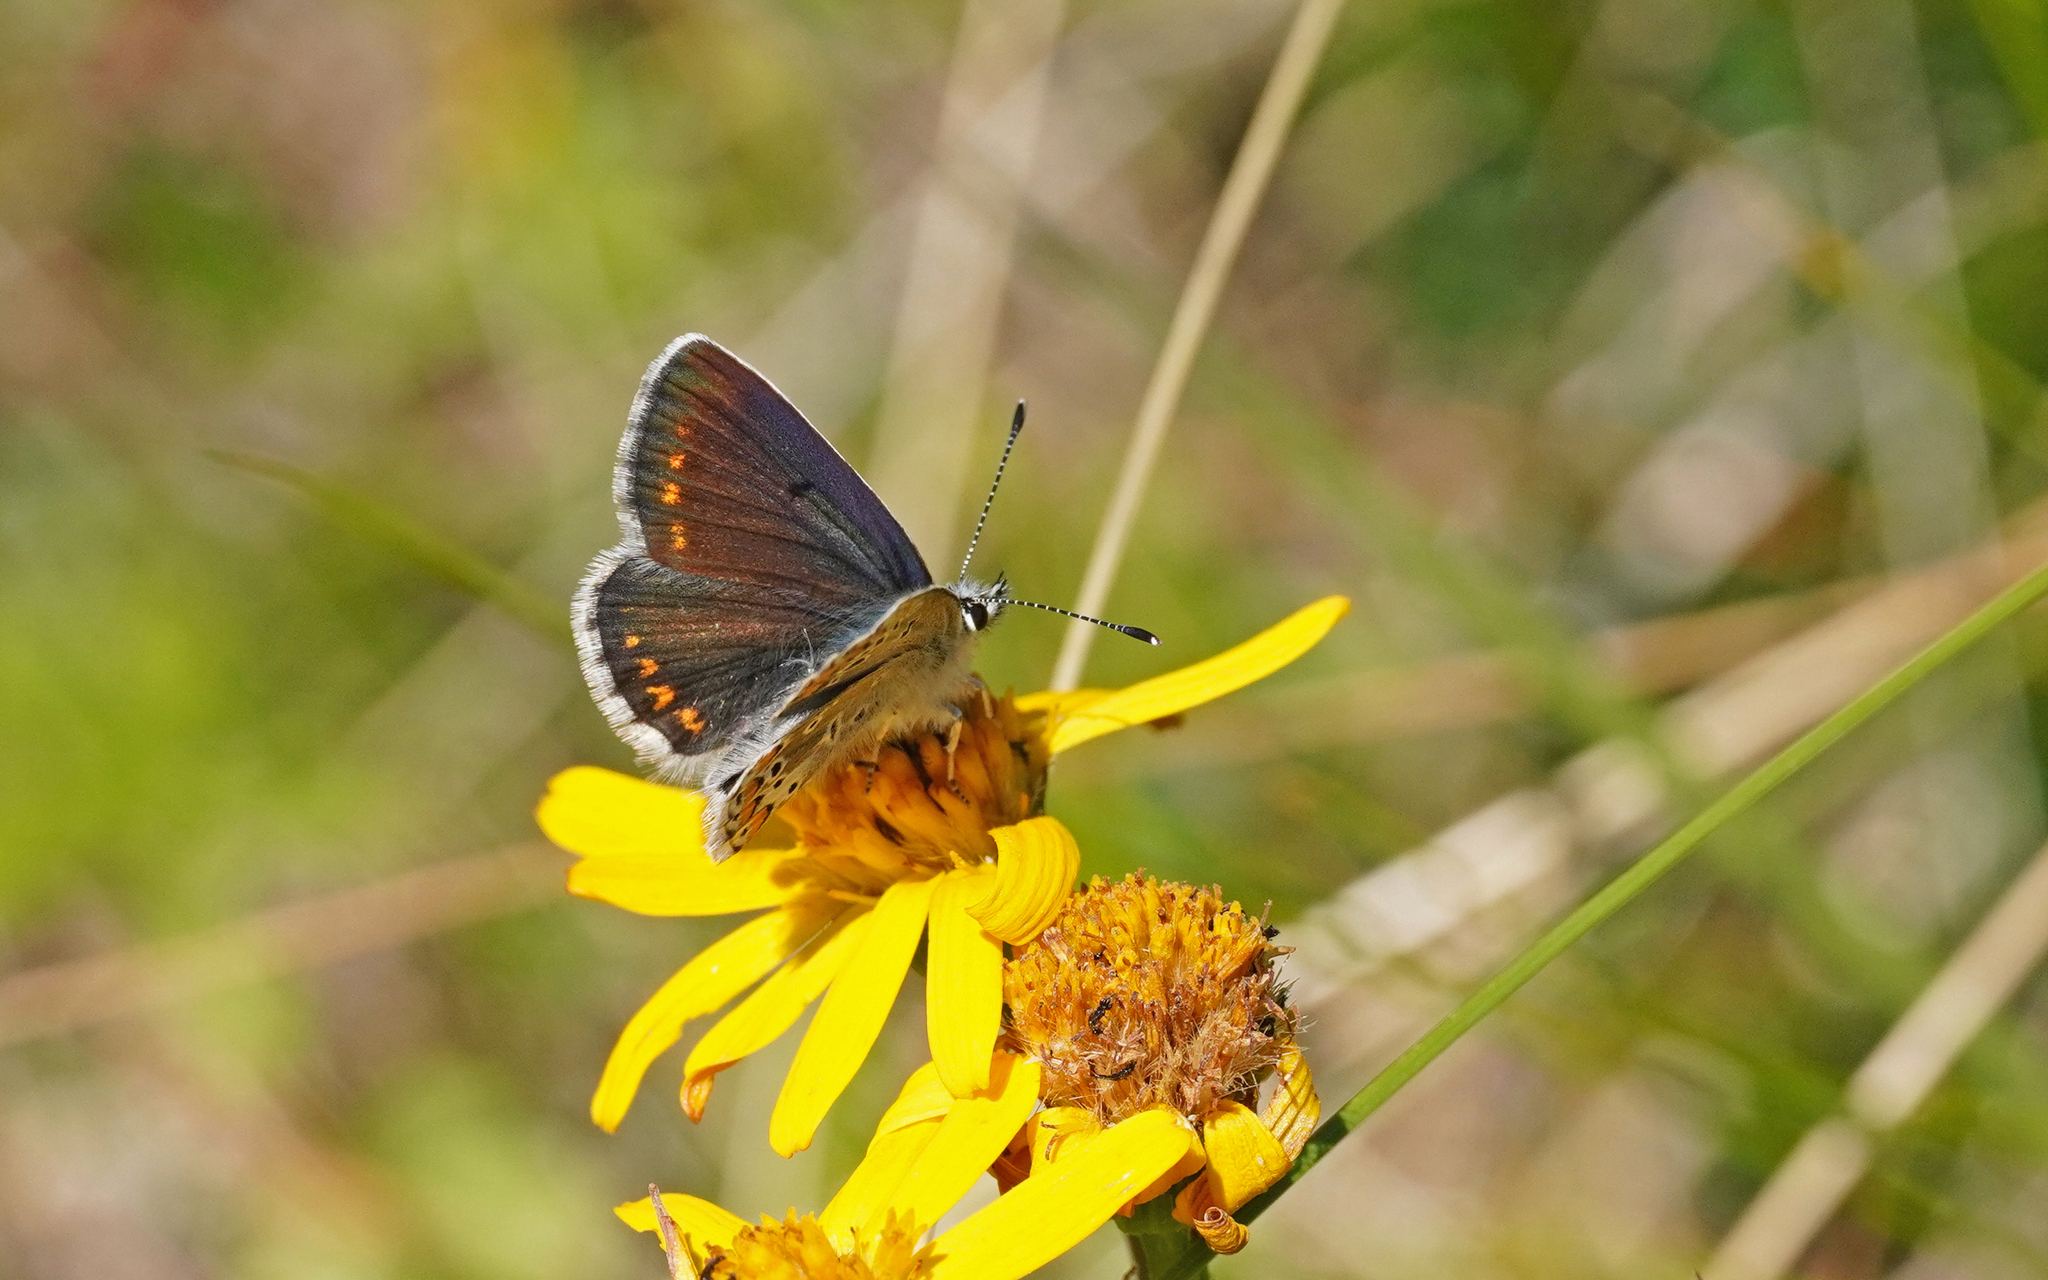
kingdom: Animalia
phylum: Arthropoda
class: Insecta
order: Lepidoptera
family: Lycaenidae
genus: Aricia
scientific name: Aricia artaxerxes
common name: Northern brown argus
